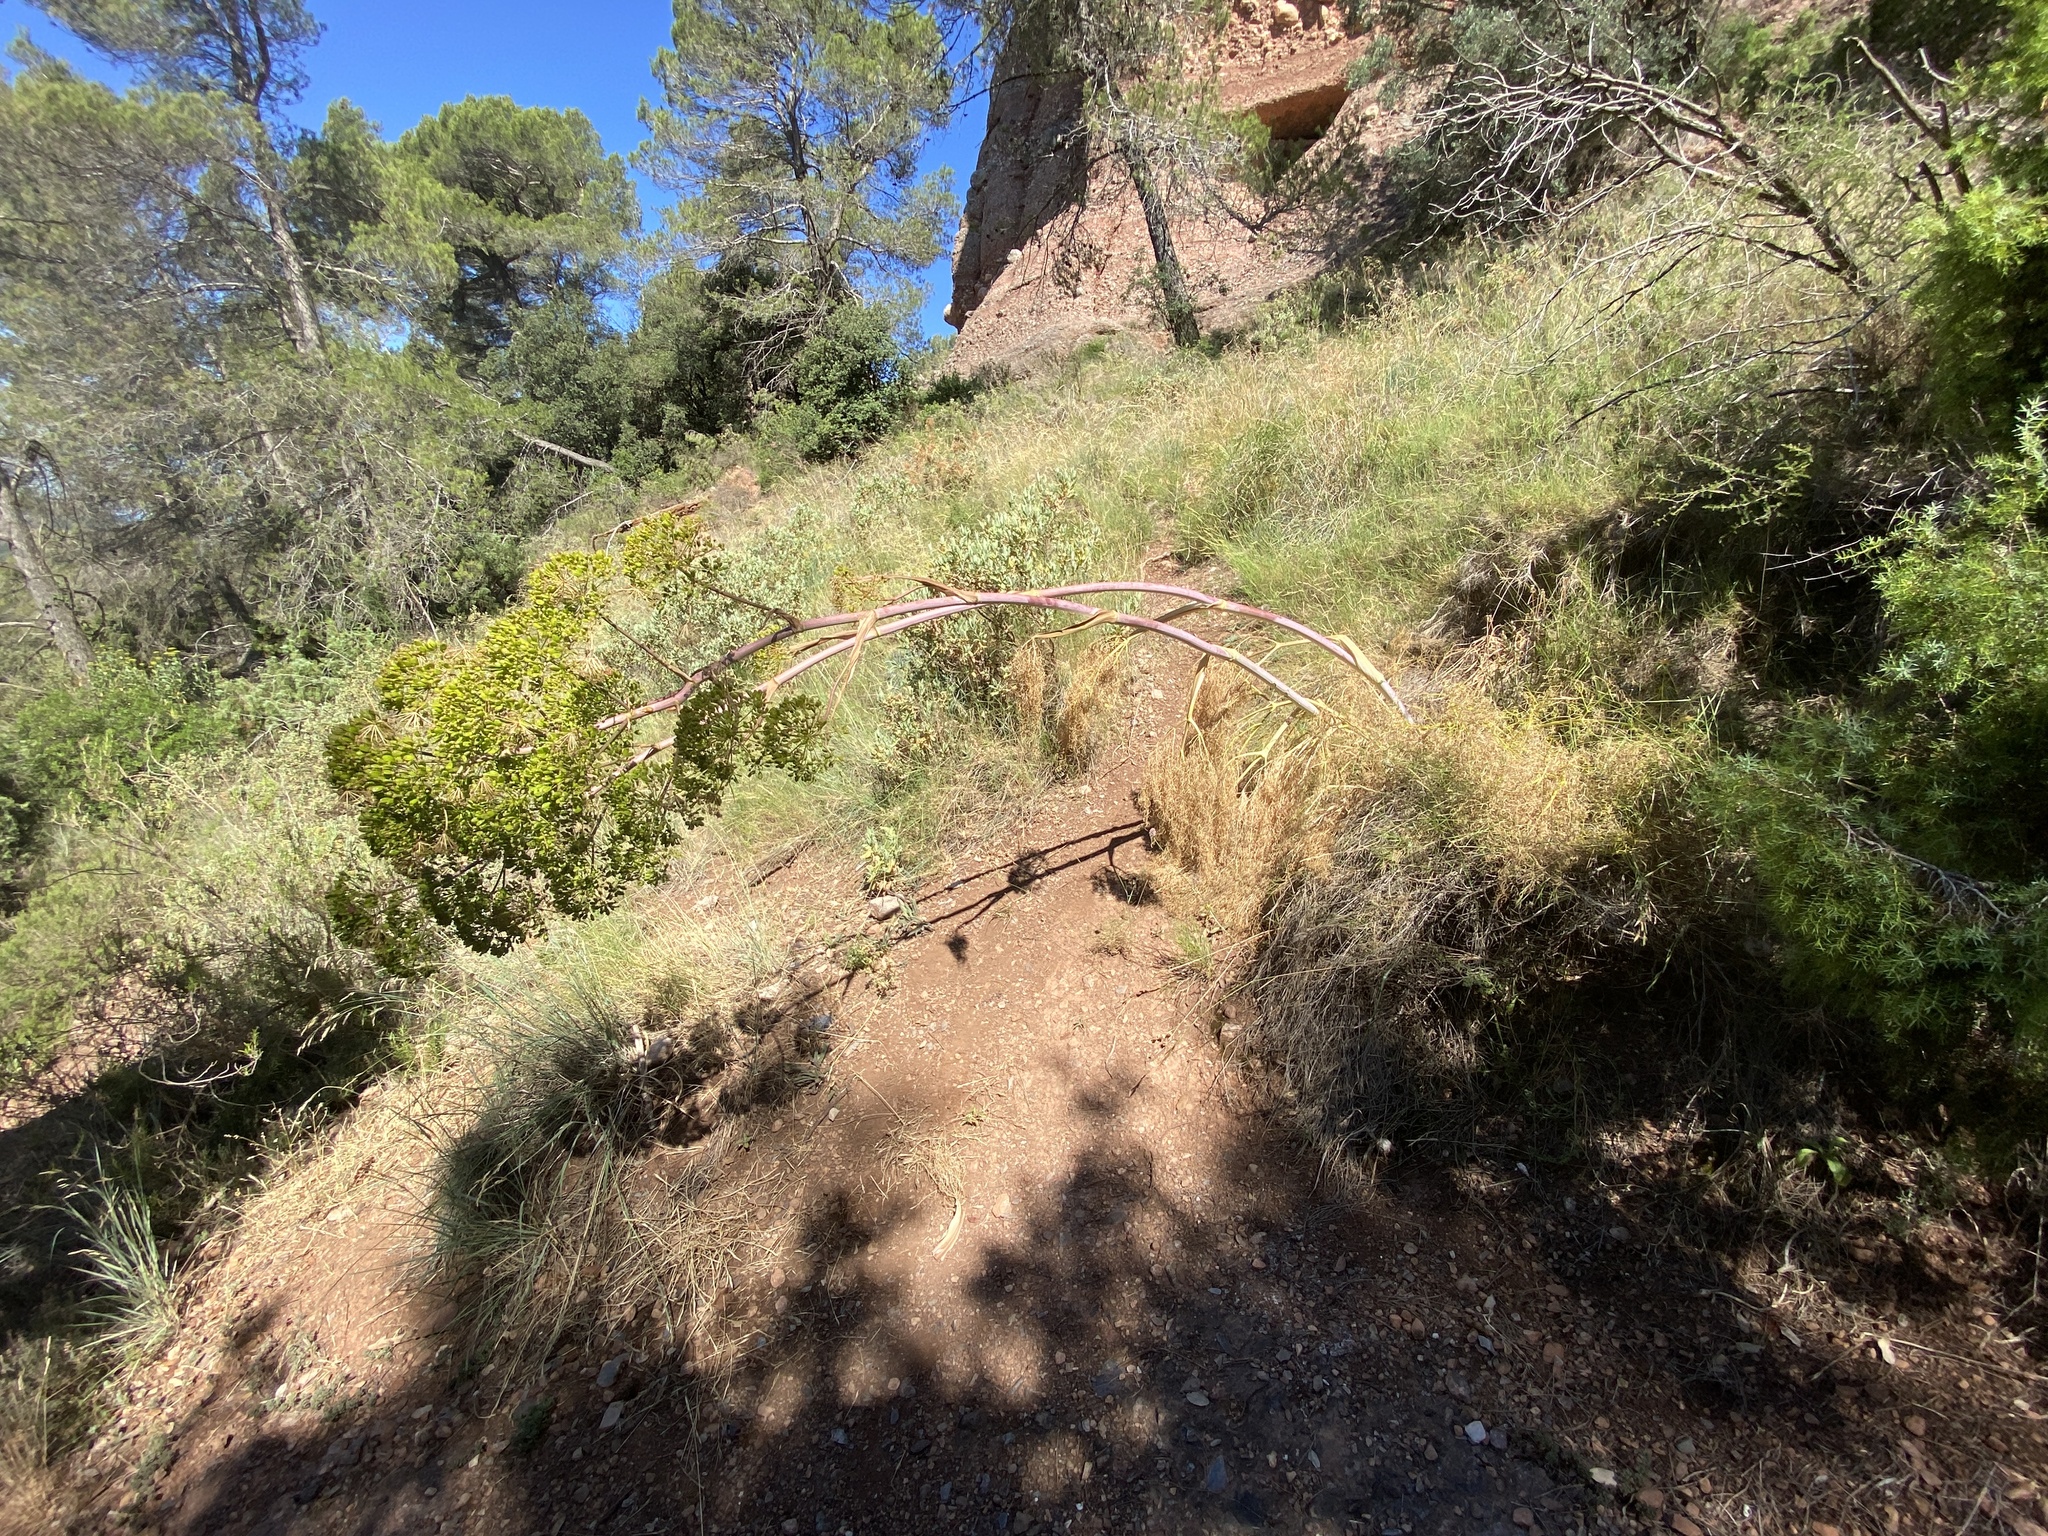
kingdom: Plantae
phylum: Tracheophyta
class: Magnoliopsida
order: Apiales
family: Apiaceae
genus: Ferula
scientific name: Ferula communis
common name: Giant fennel
